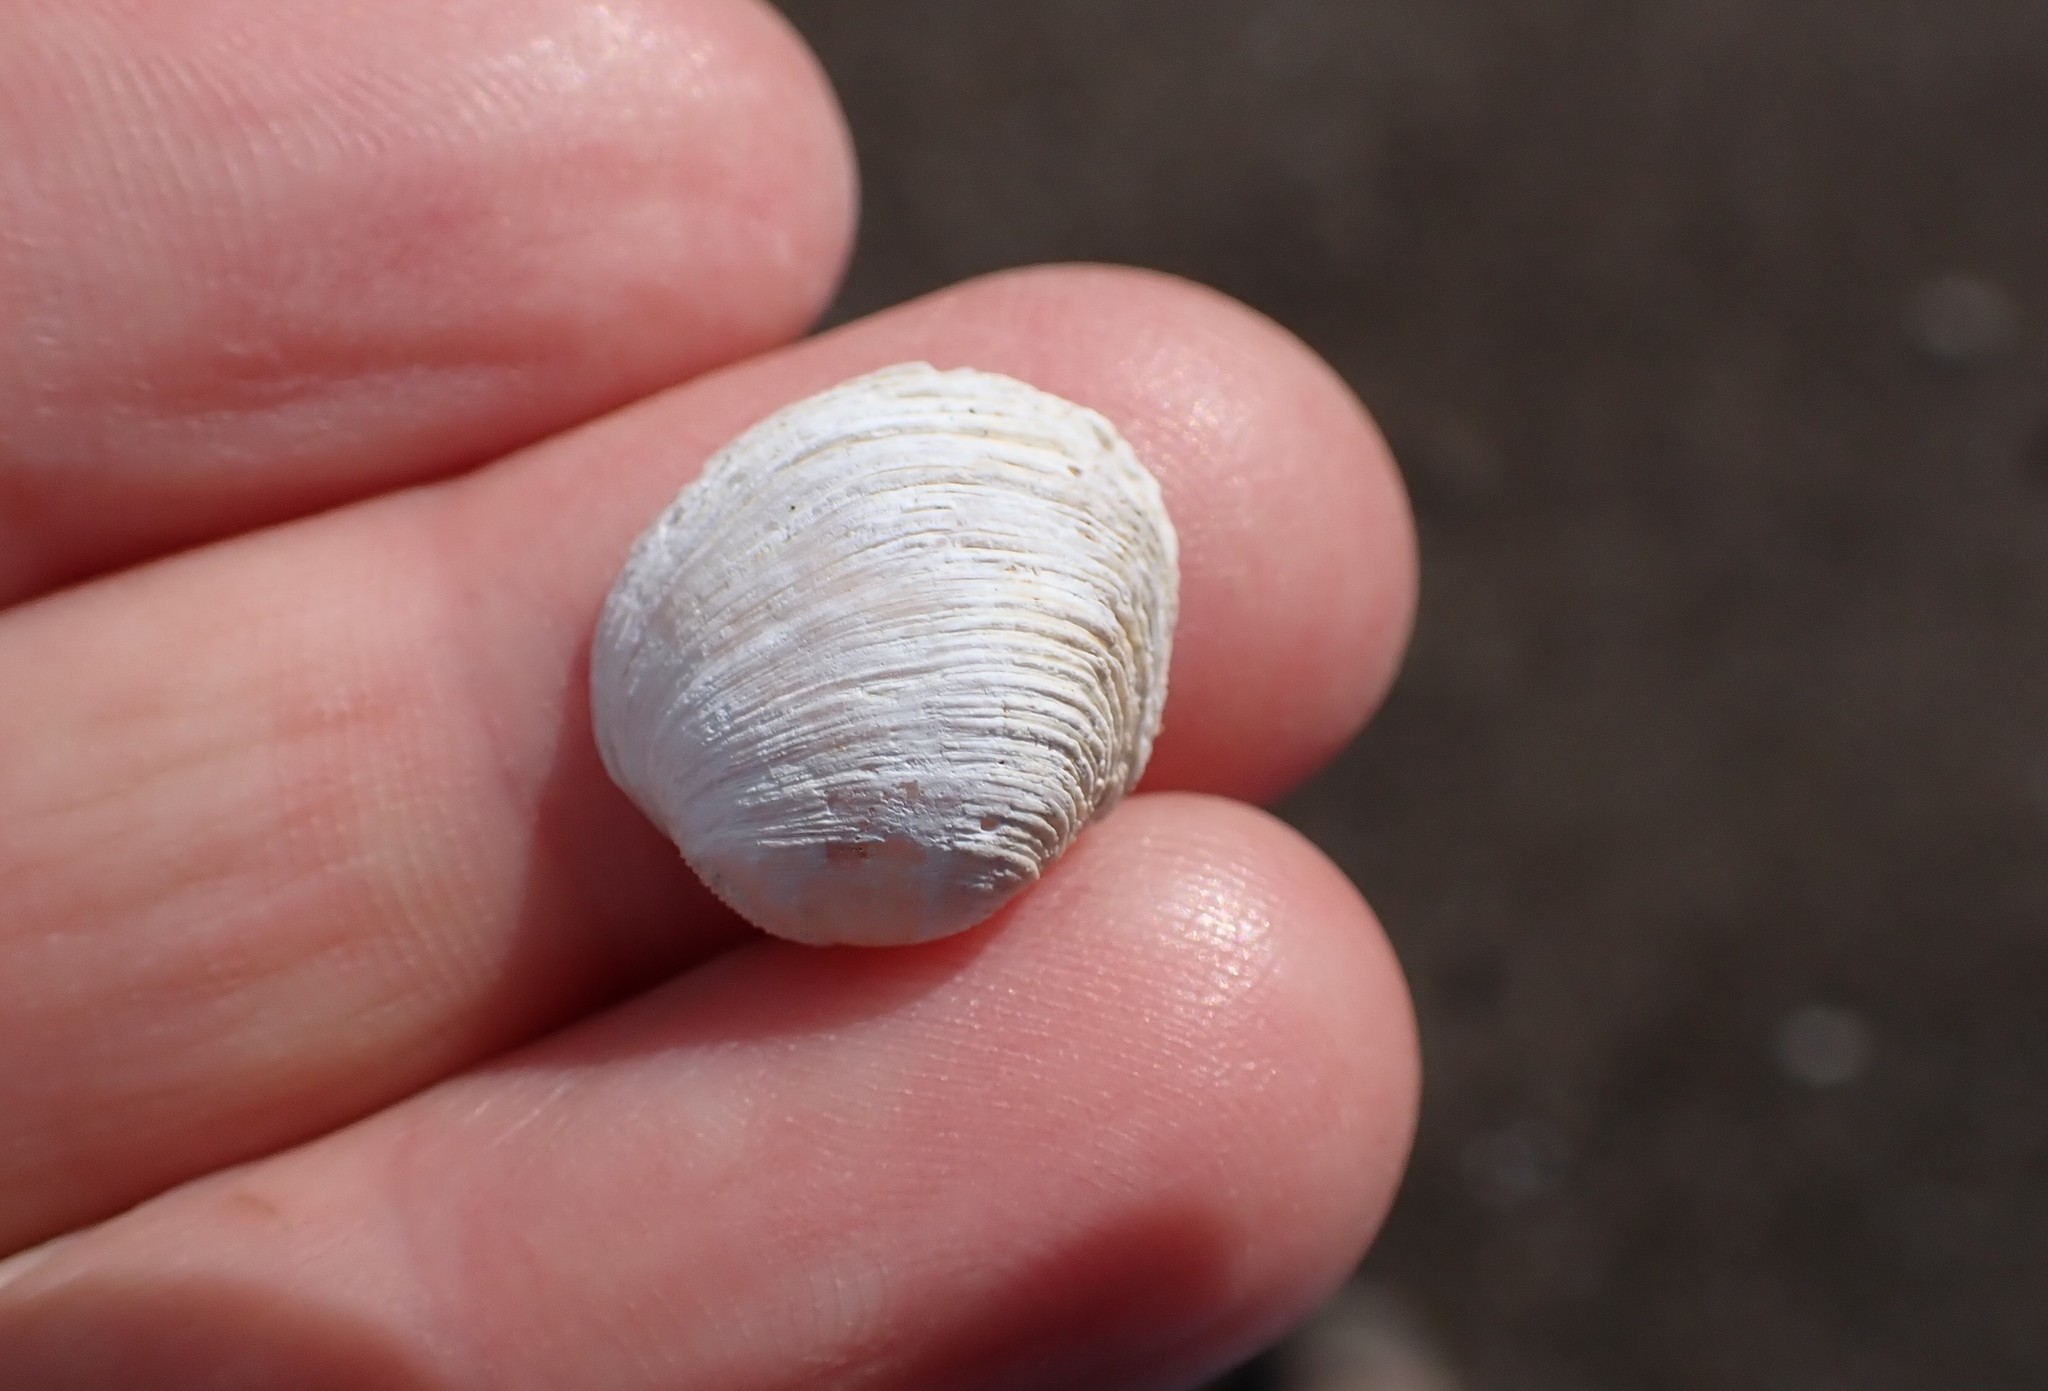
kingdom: Animalia
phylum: Mollusca
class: Bivalvia
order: Venerida
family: Veneridae
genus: Irus
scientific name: Irus reflexus
